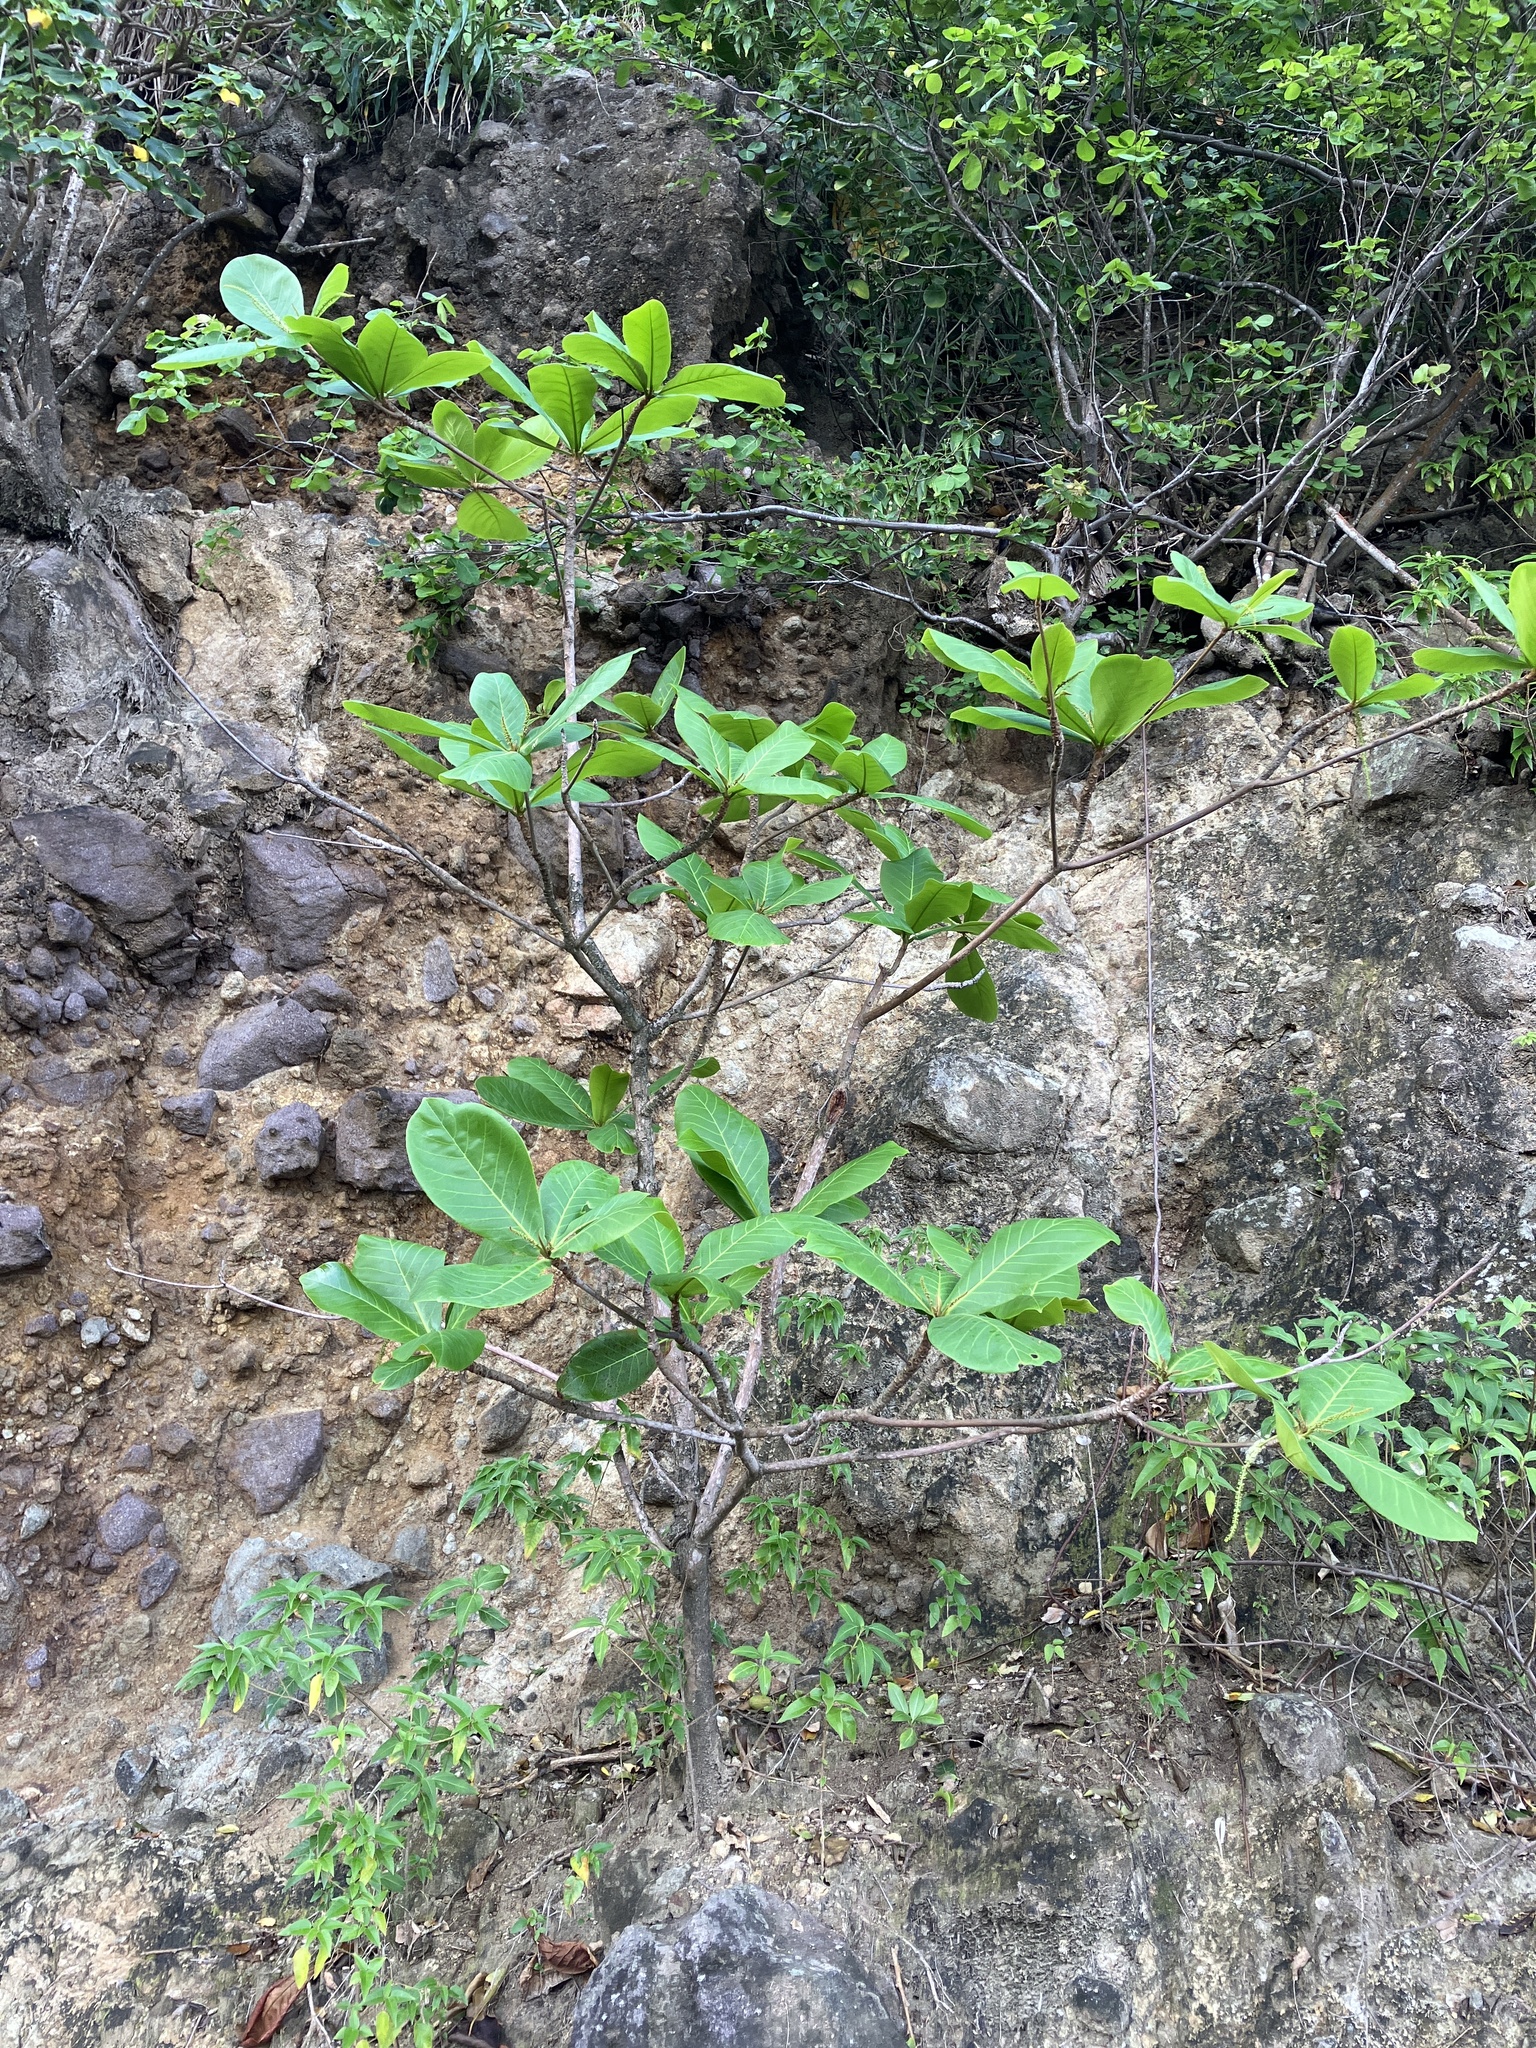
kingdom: Plantae
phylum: Tracheophyta
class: Magnoliopsida
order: Myrtales
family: Combretaceae
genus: Terminalia
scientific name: Terminalia catappa
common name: Tropical almond
